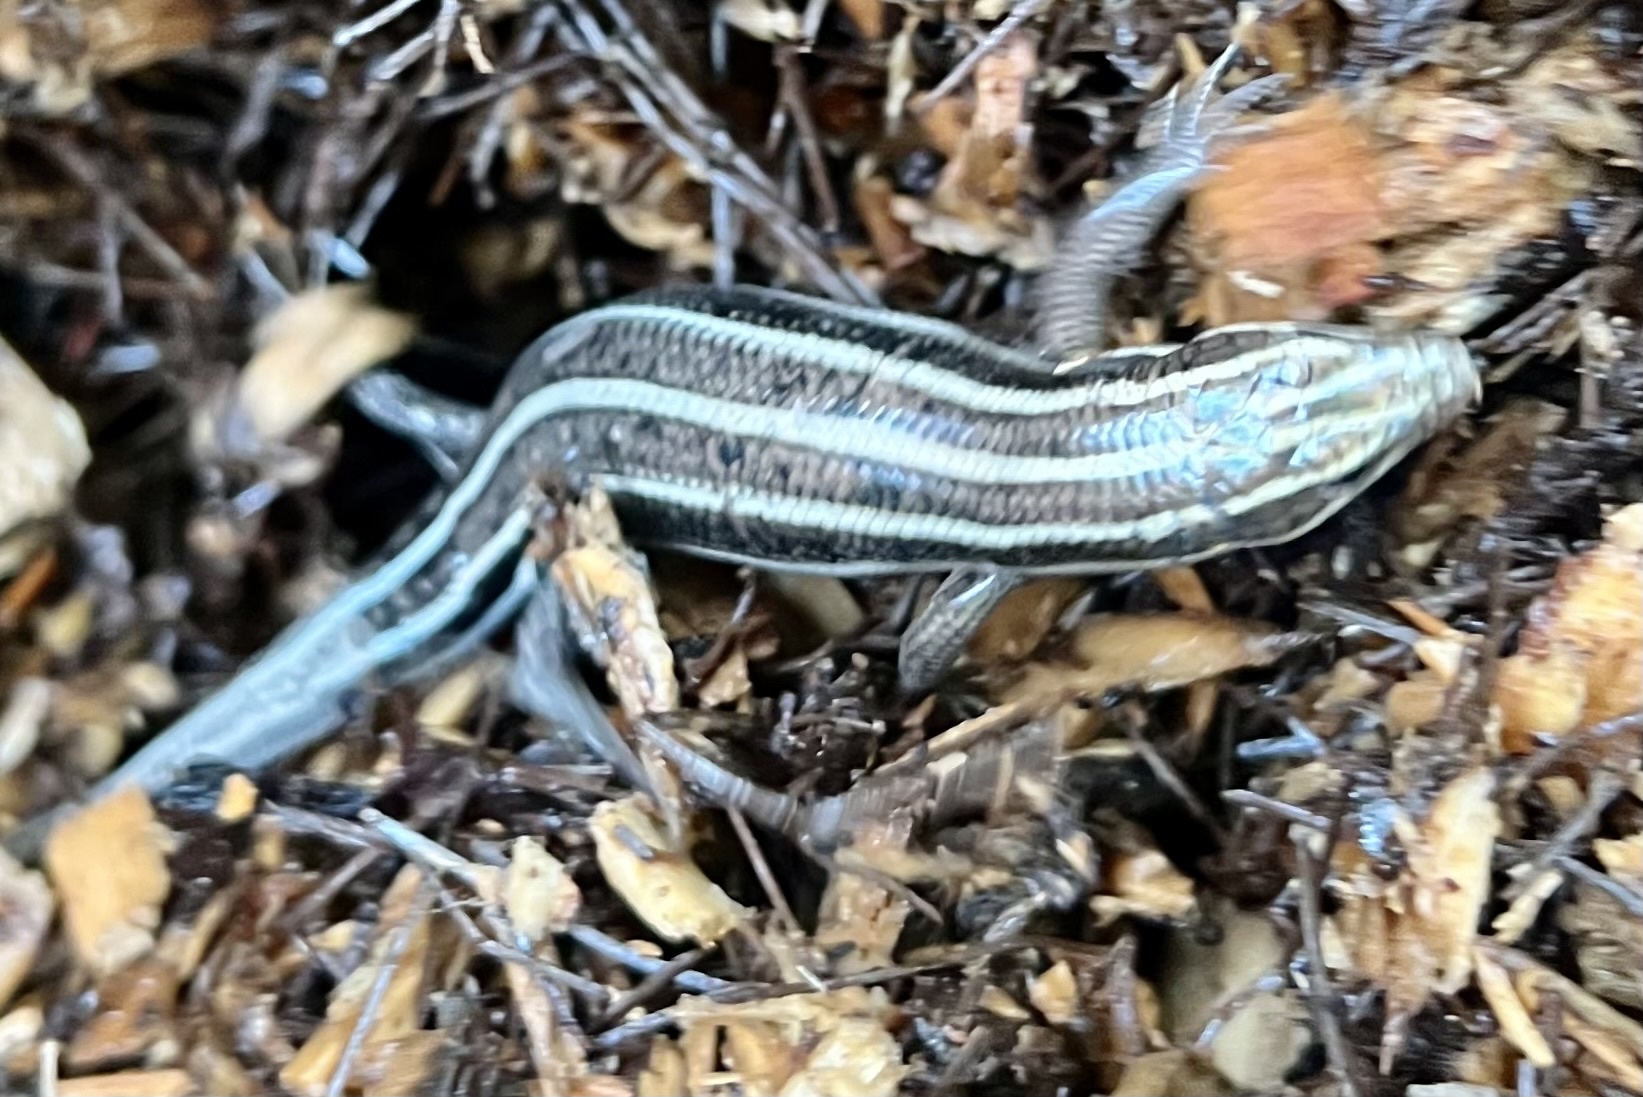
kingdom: Animalia
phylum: Chordata
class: Squamata
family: Scincidae
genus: Plestiodon
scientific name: Plestiodon fasciatus
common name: Five-lined skink
